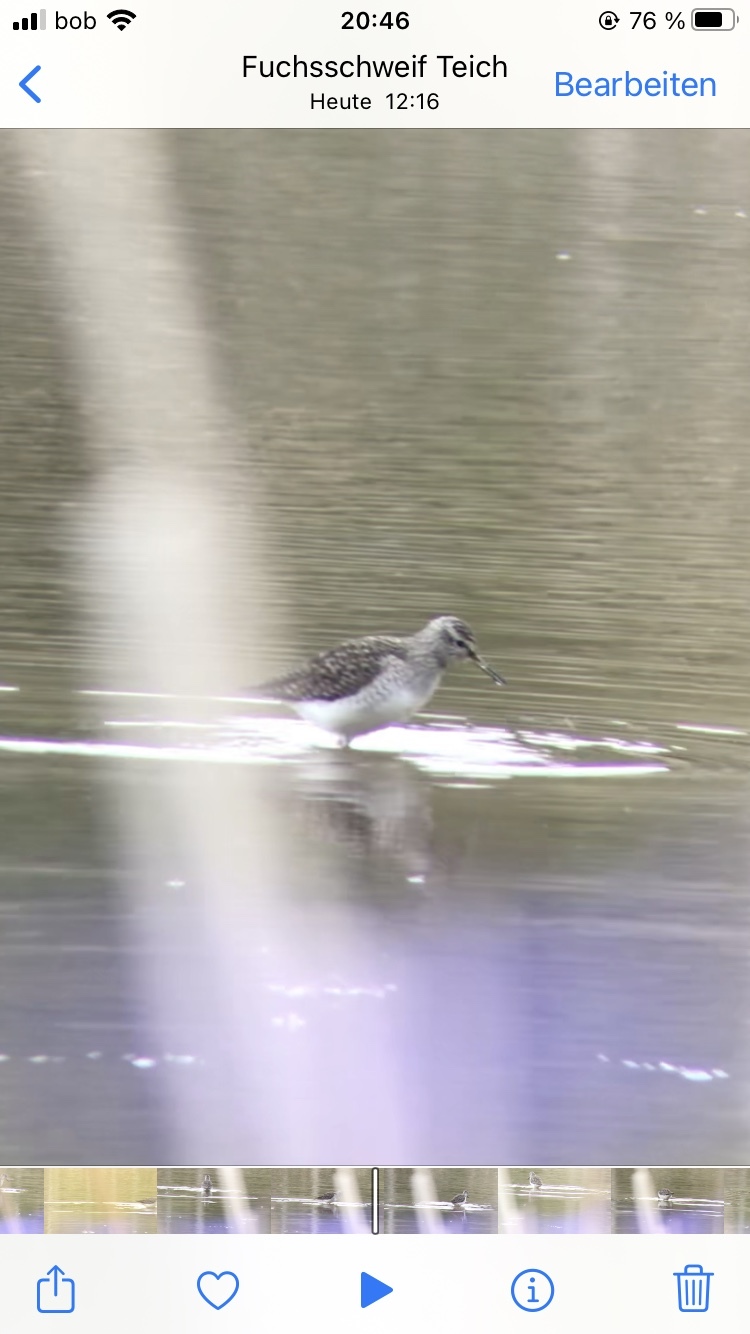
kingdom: Animalia
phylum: Chordata
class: Aves
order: Charadriiformes
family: Scolopacidae
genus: Tringa
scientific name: Tringa glareola
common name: Wood sandpiper
